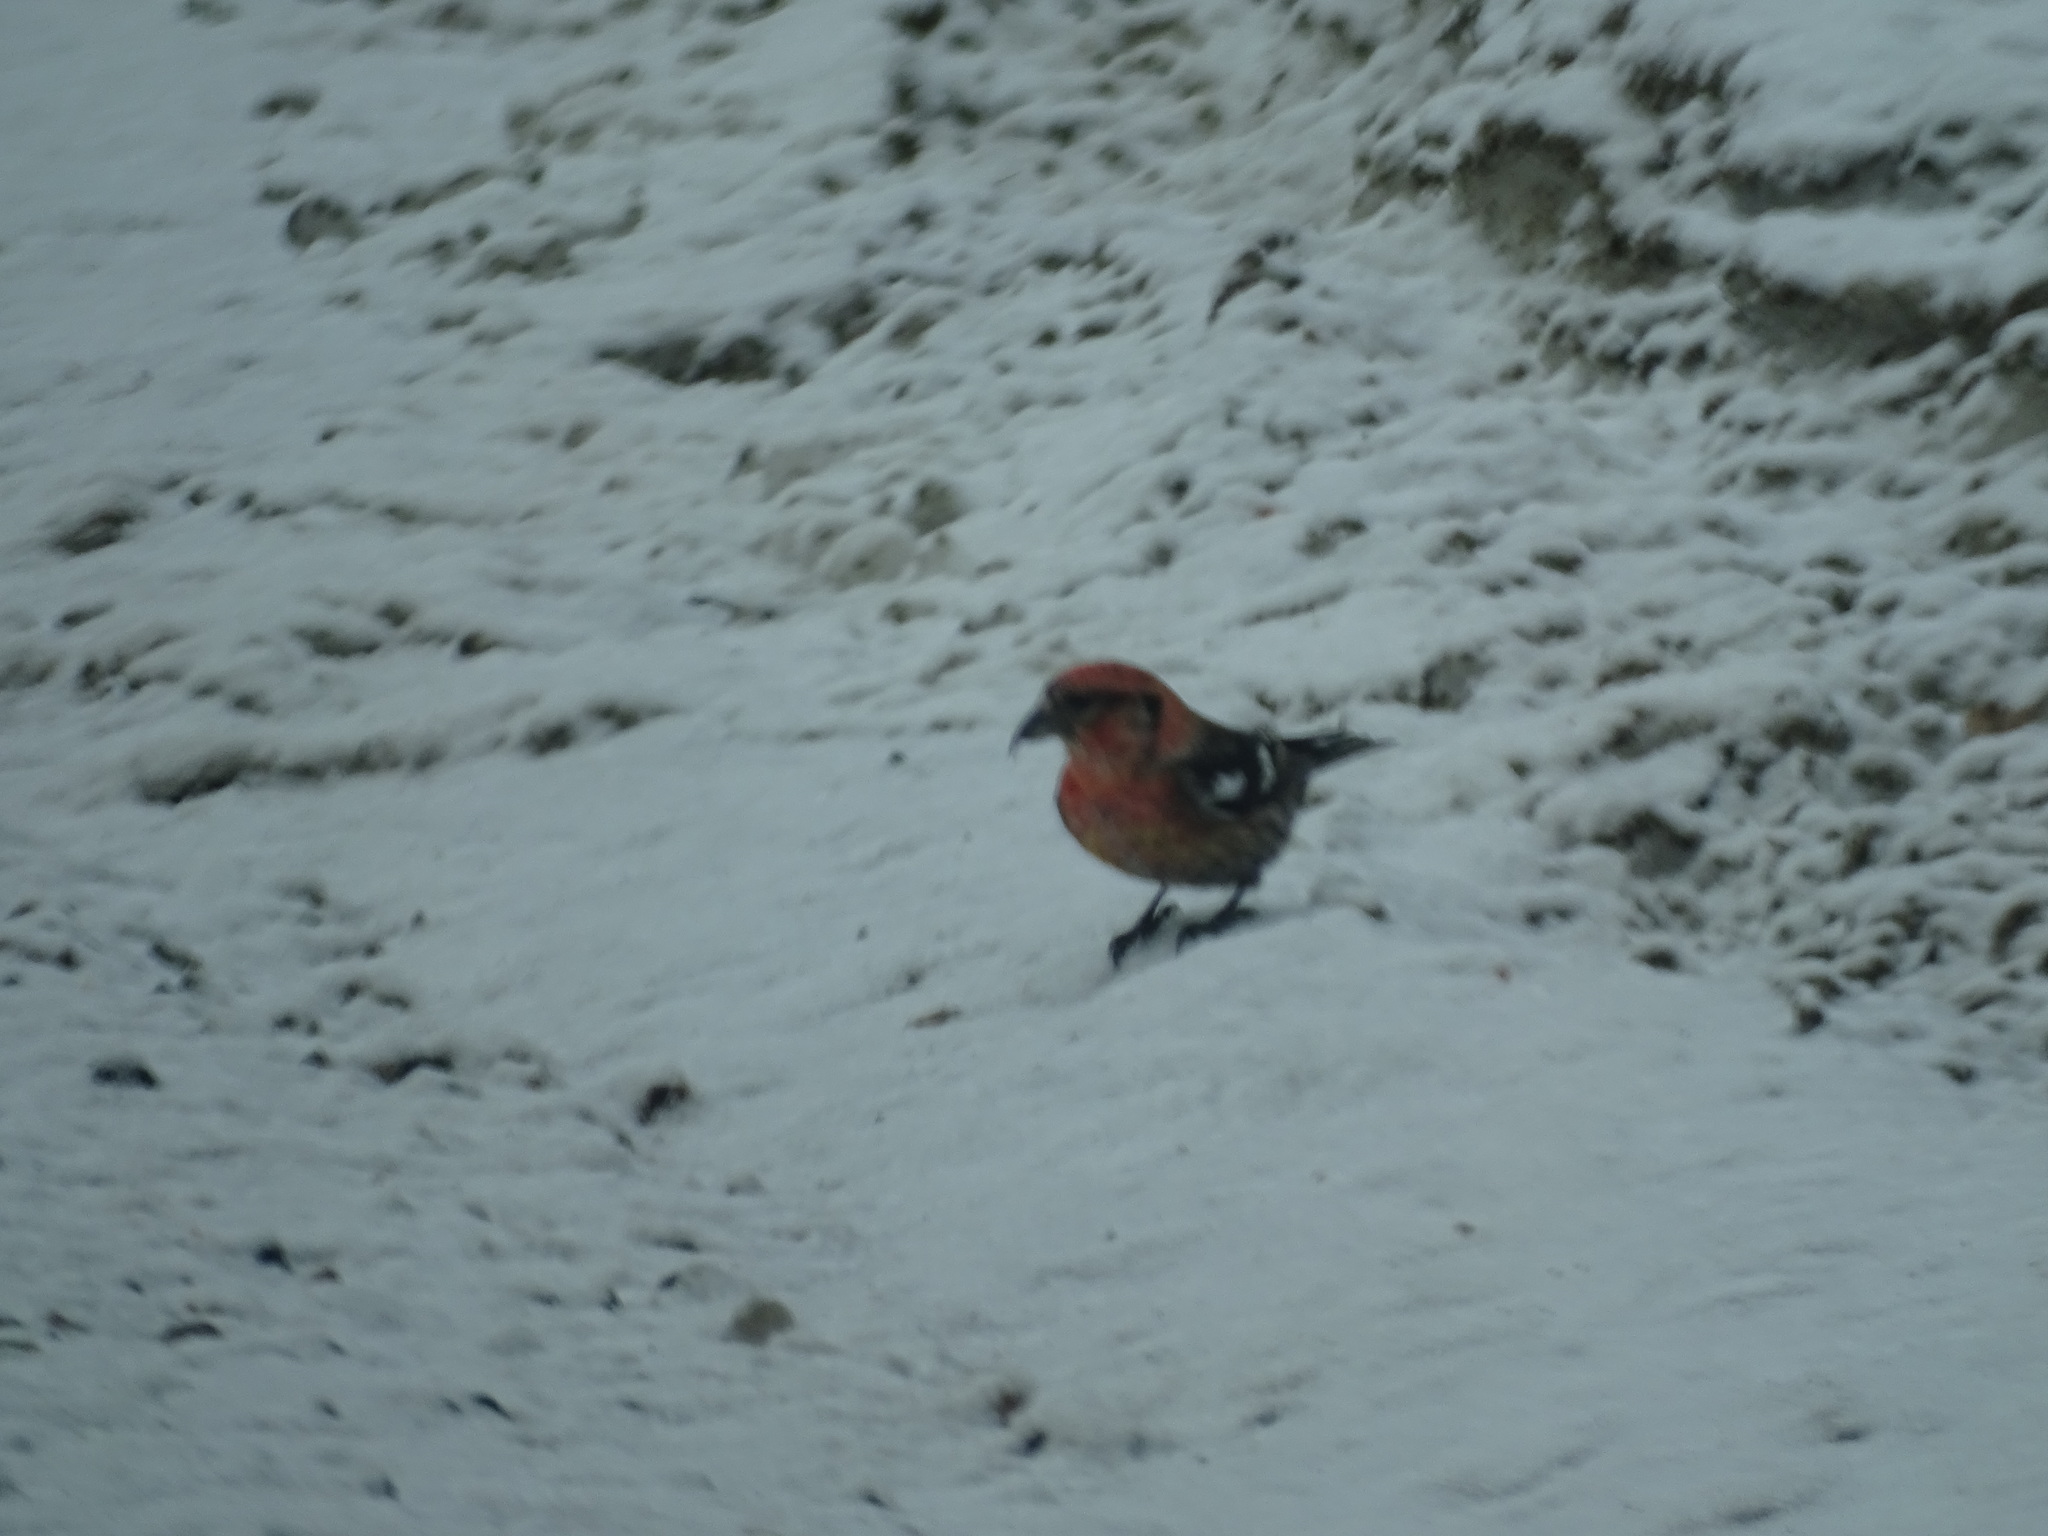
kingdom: Animalia
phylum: Chordata
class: Aves
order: Passeriformes
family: Fringillidae
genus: Loxia
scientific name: Loxia leucoptera
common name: Two-barred crossbill
